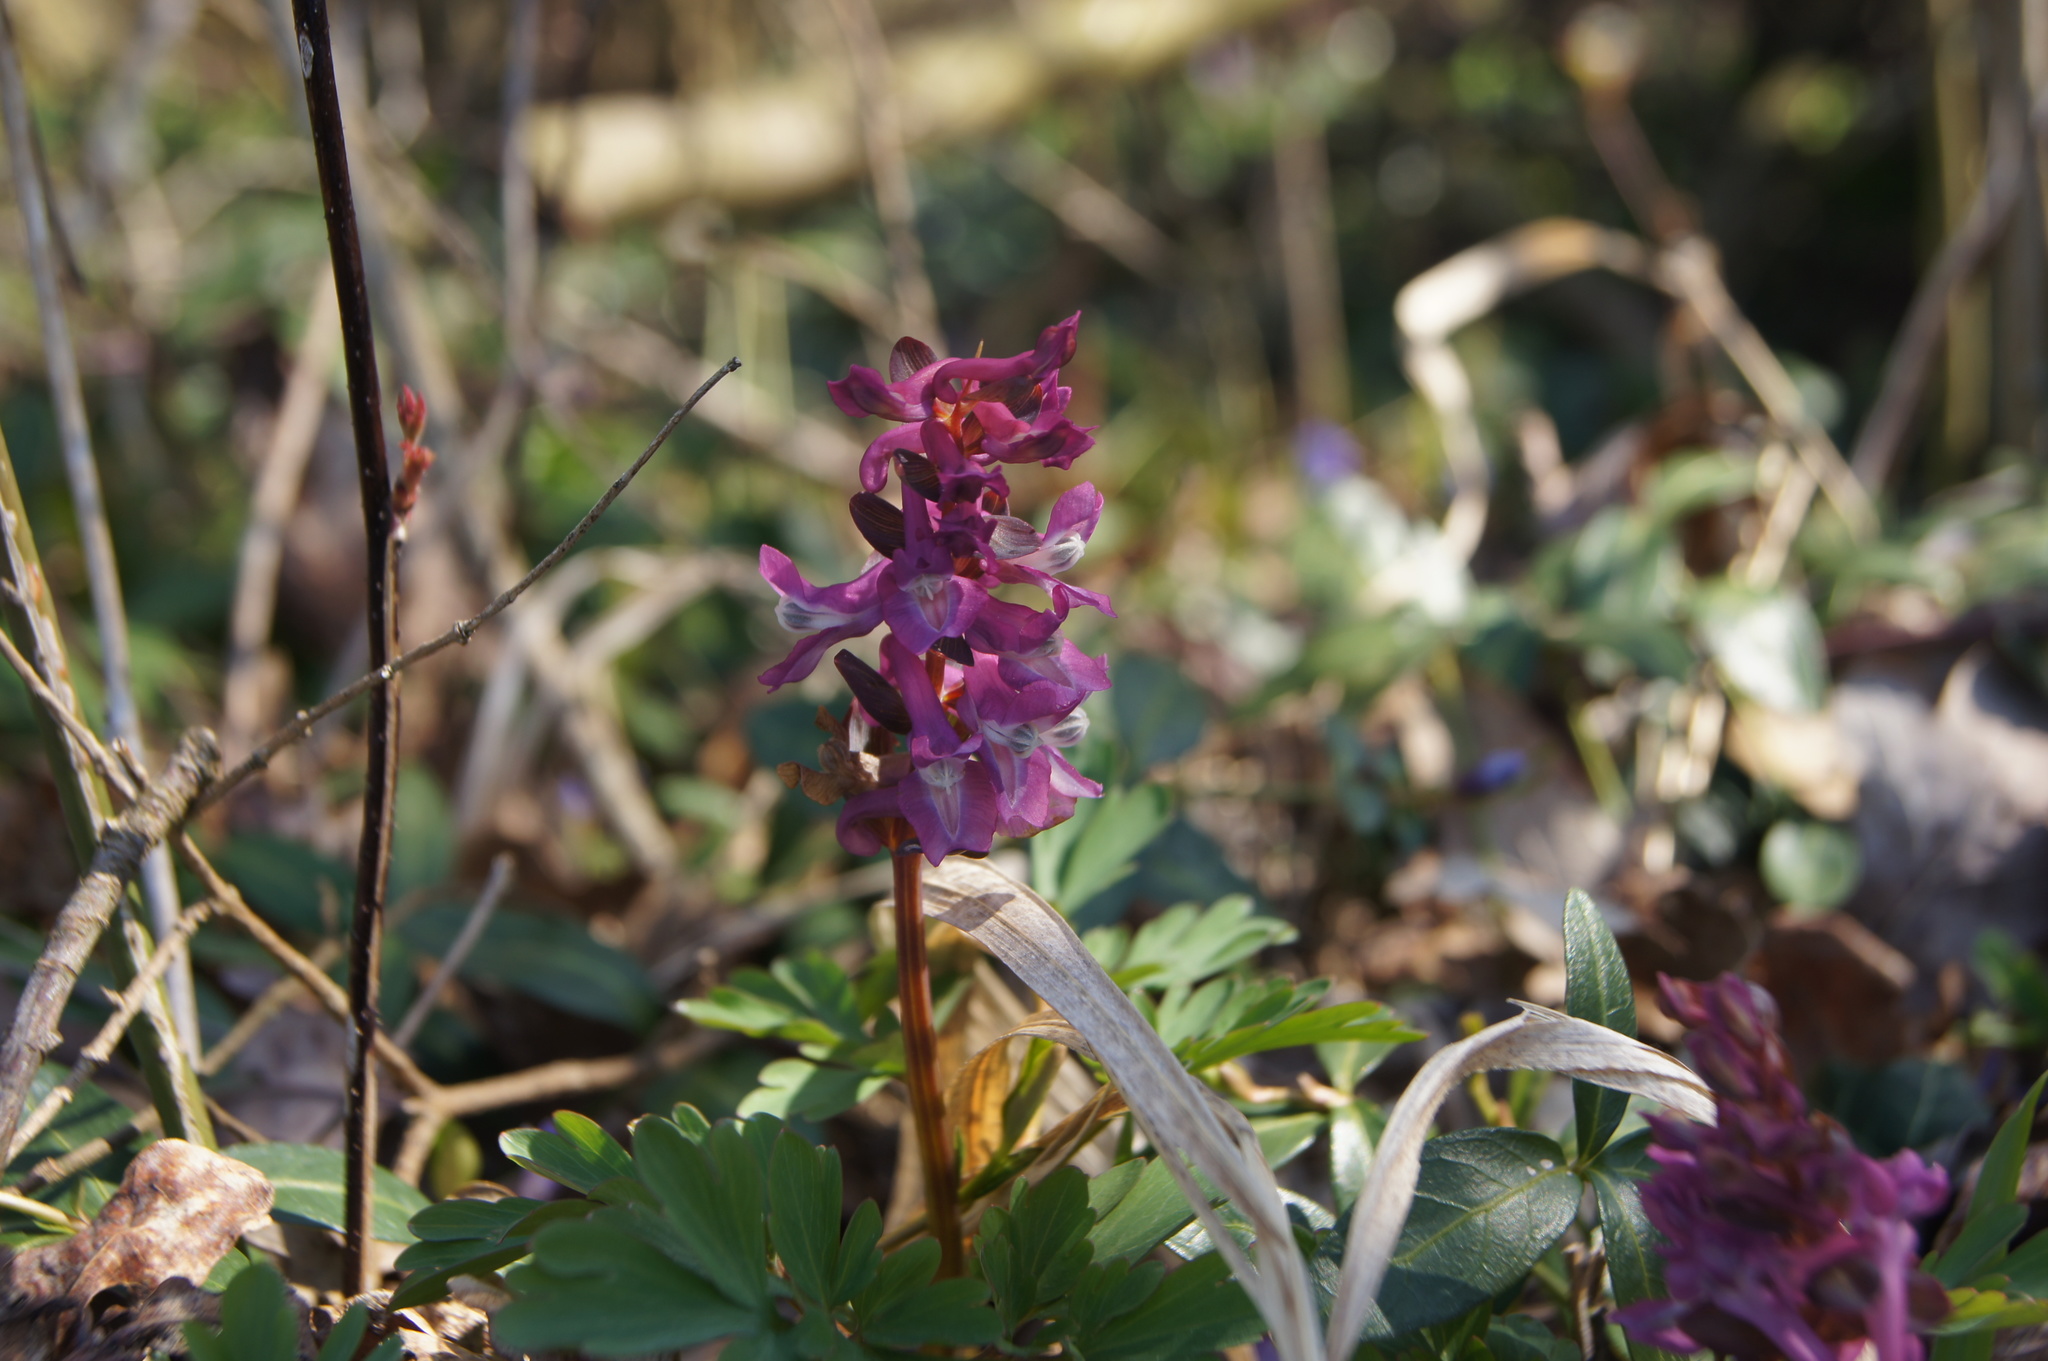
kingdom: Plantae
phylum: Tracheophyta
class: Magnoliopsida
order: Ranunculales
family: Papaveraceae
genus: Corydalis
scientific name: Corydalis cava
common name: Hollowroot
